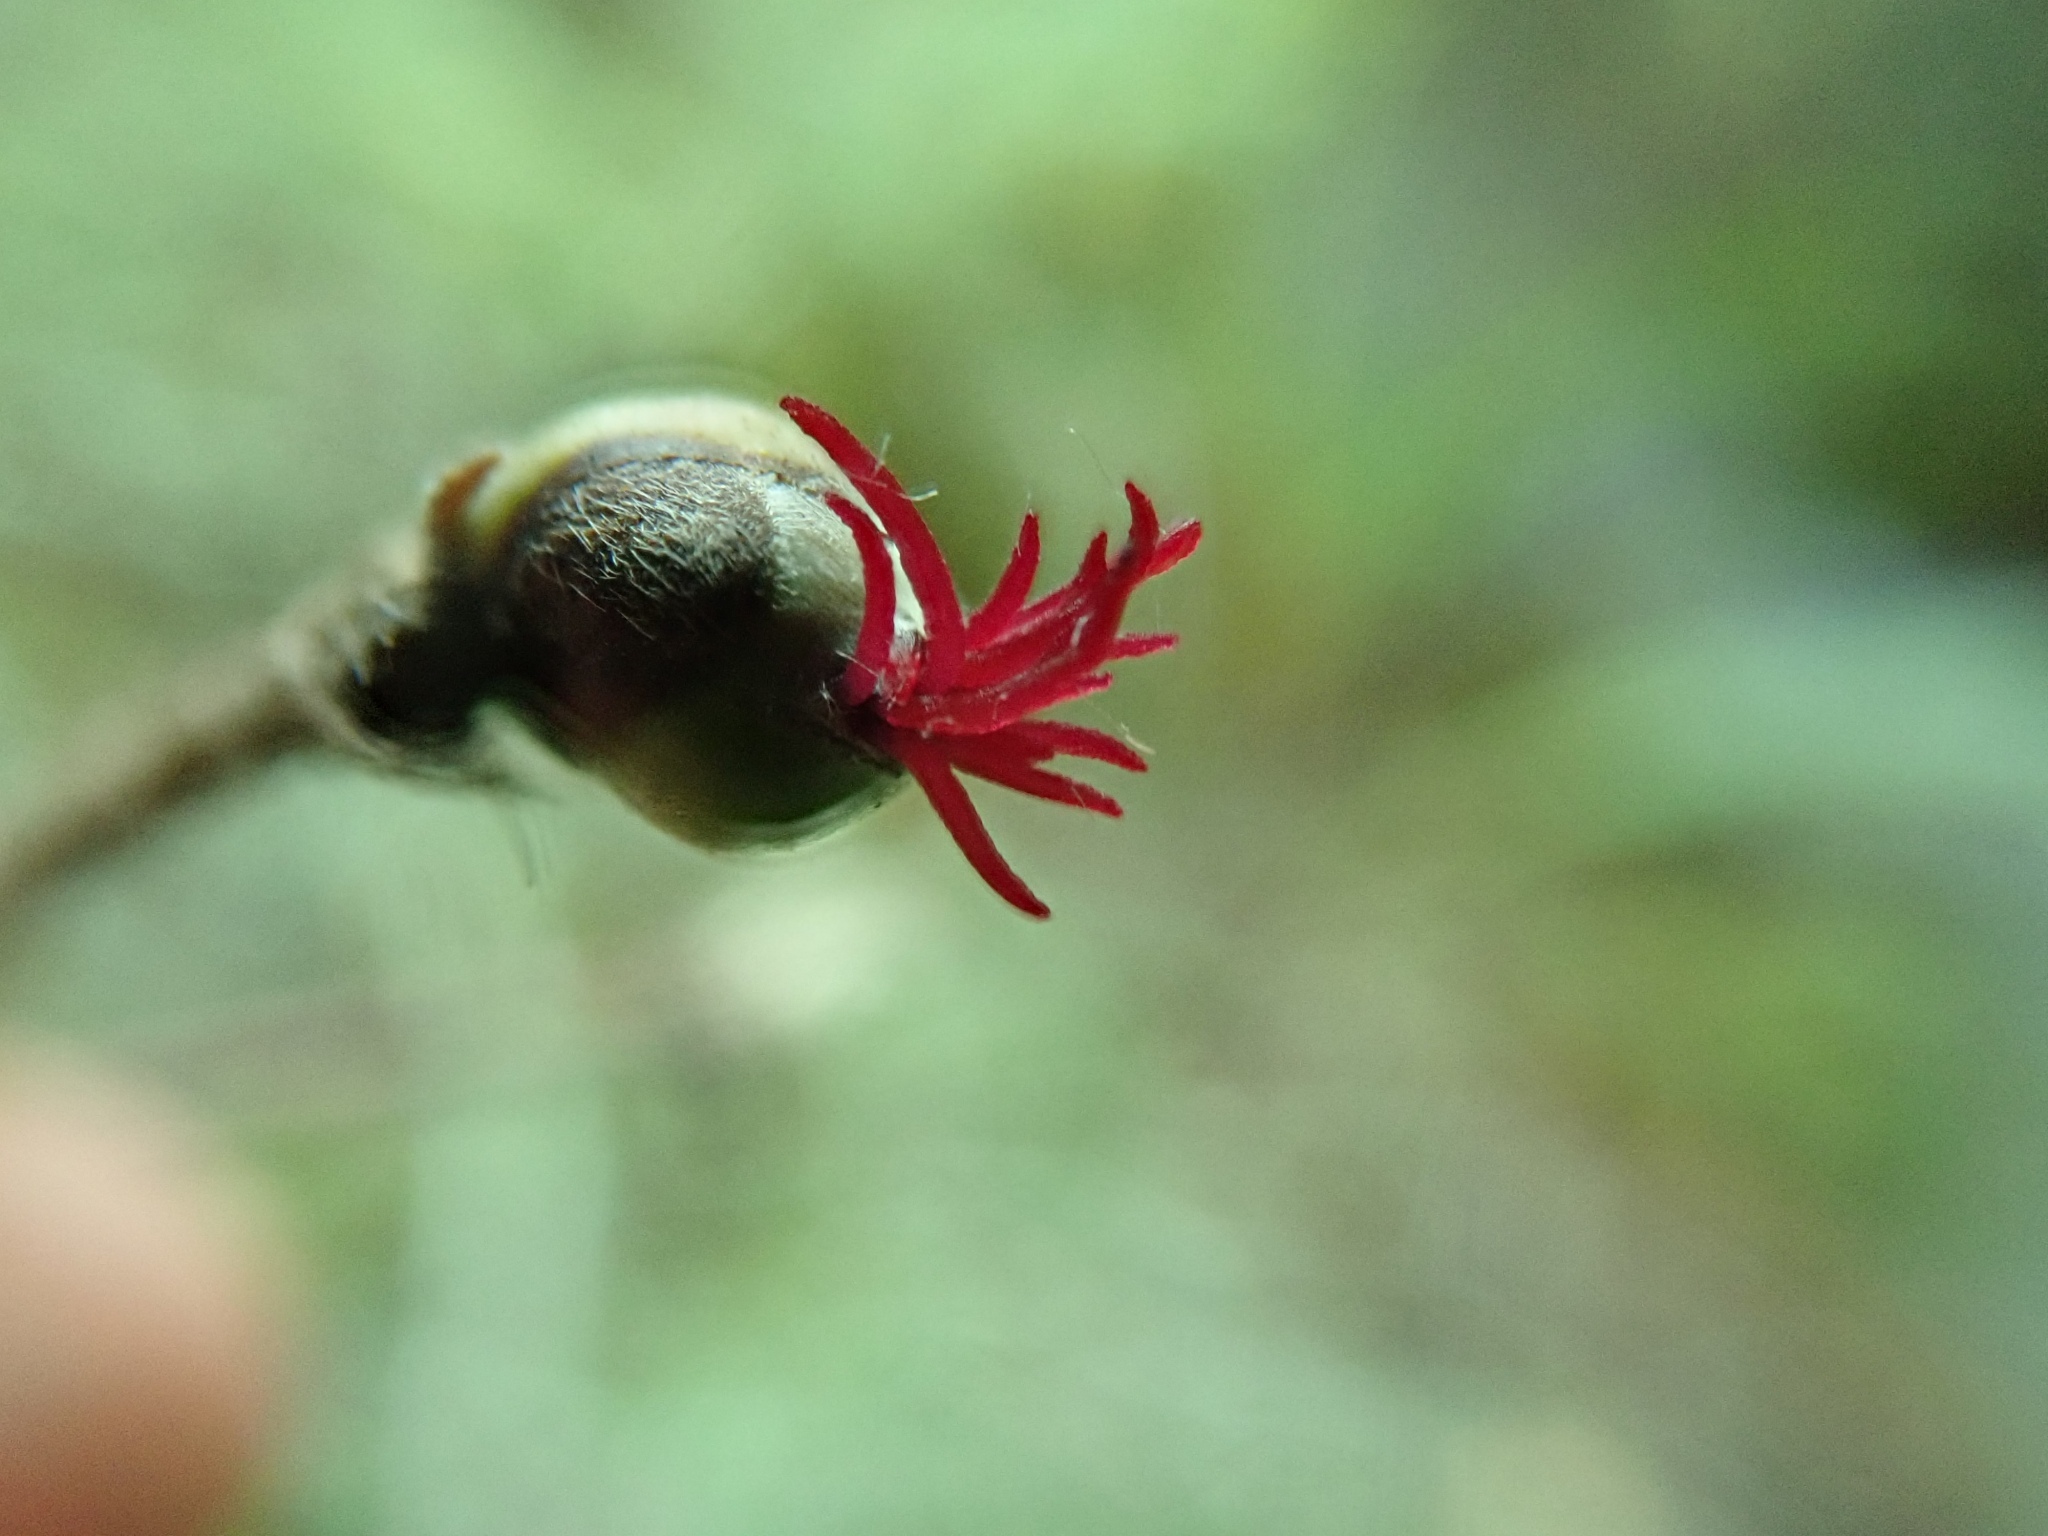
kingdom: Plantae
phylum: Tracheophyta
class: Magnoliopsida
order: Fagales
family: Betulaceae
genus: Corylus
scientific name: Corylus cornuta
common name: Beaked hazel
